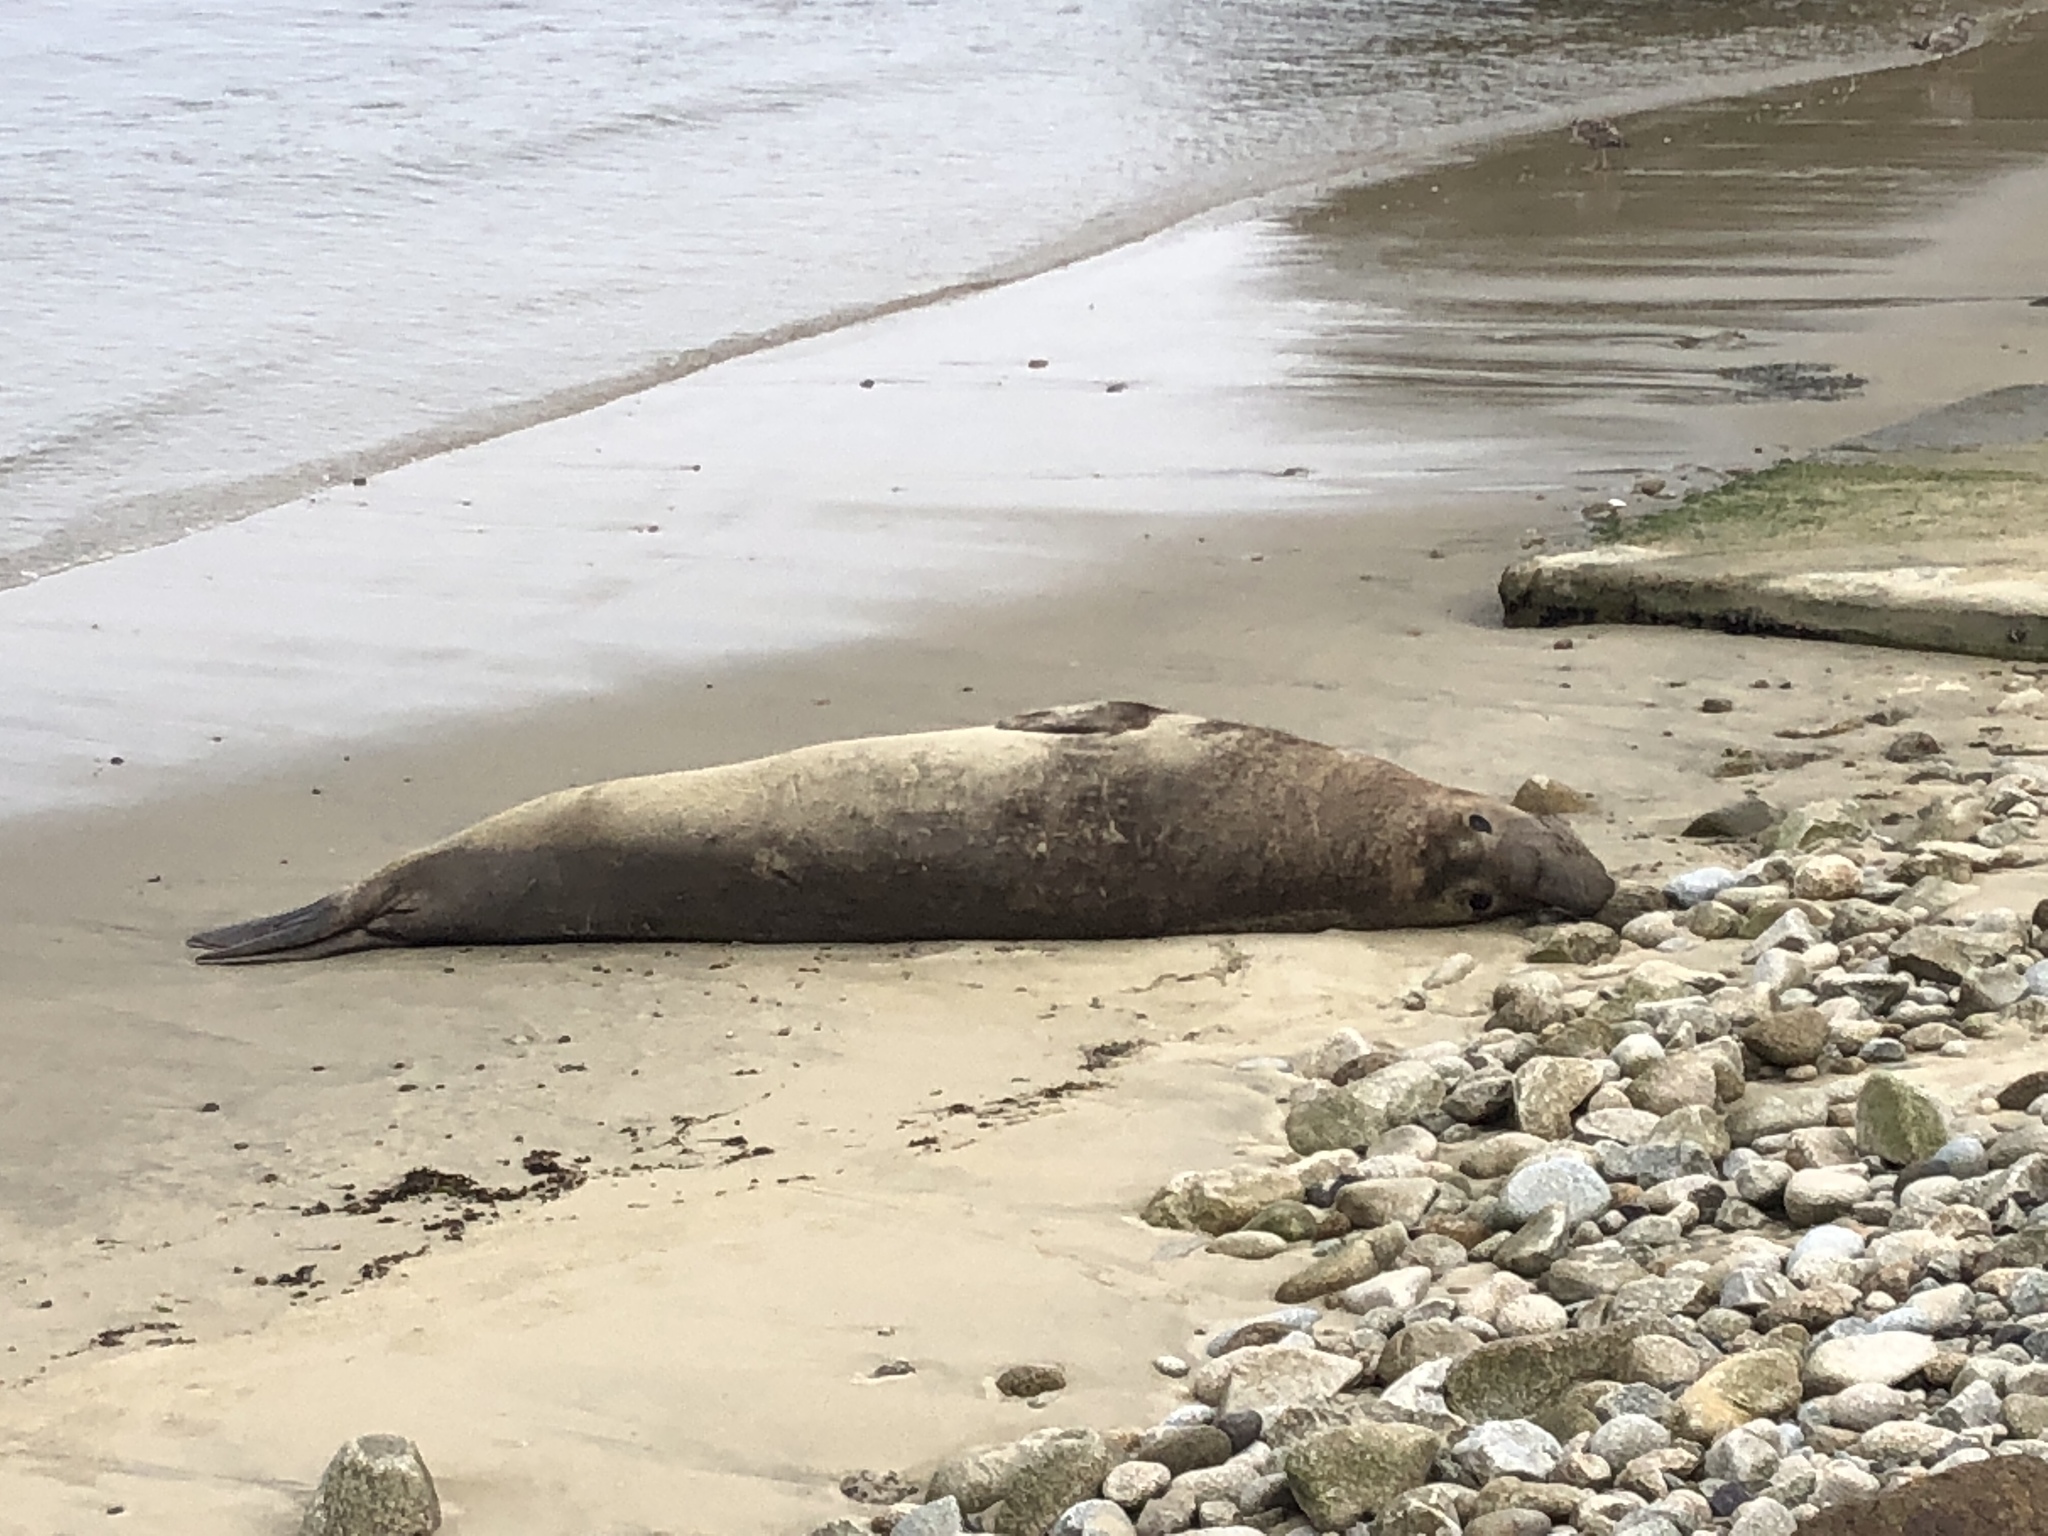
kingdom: Animalia
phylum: Chordata
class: Mammalia
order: Carnivora
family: Phocidae
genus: Mirounga
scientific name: Mirounga angustirostris
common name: Northern elephant seal
